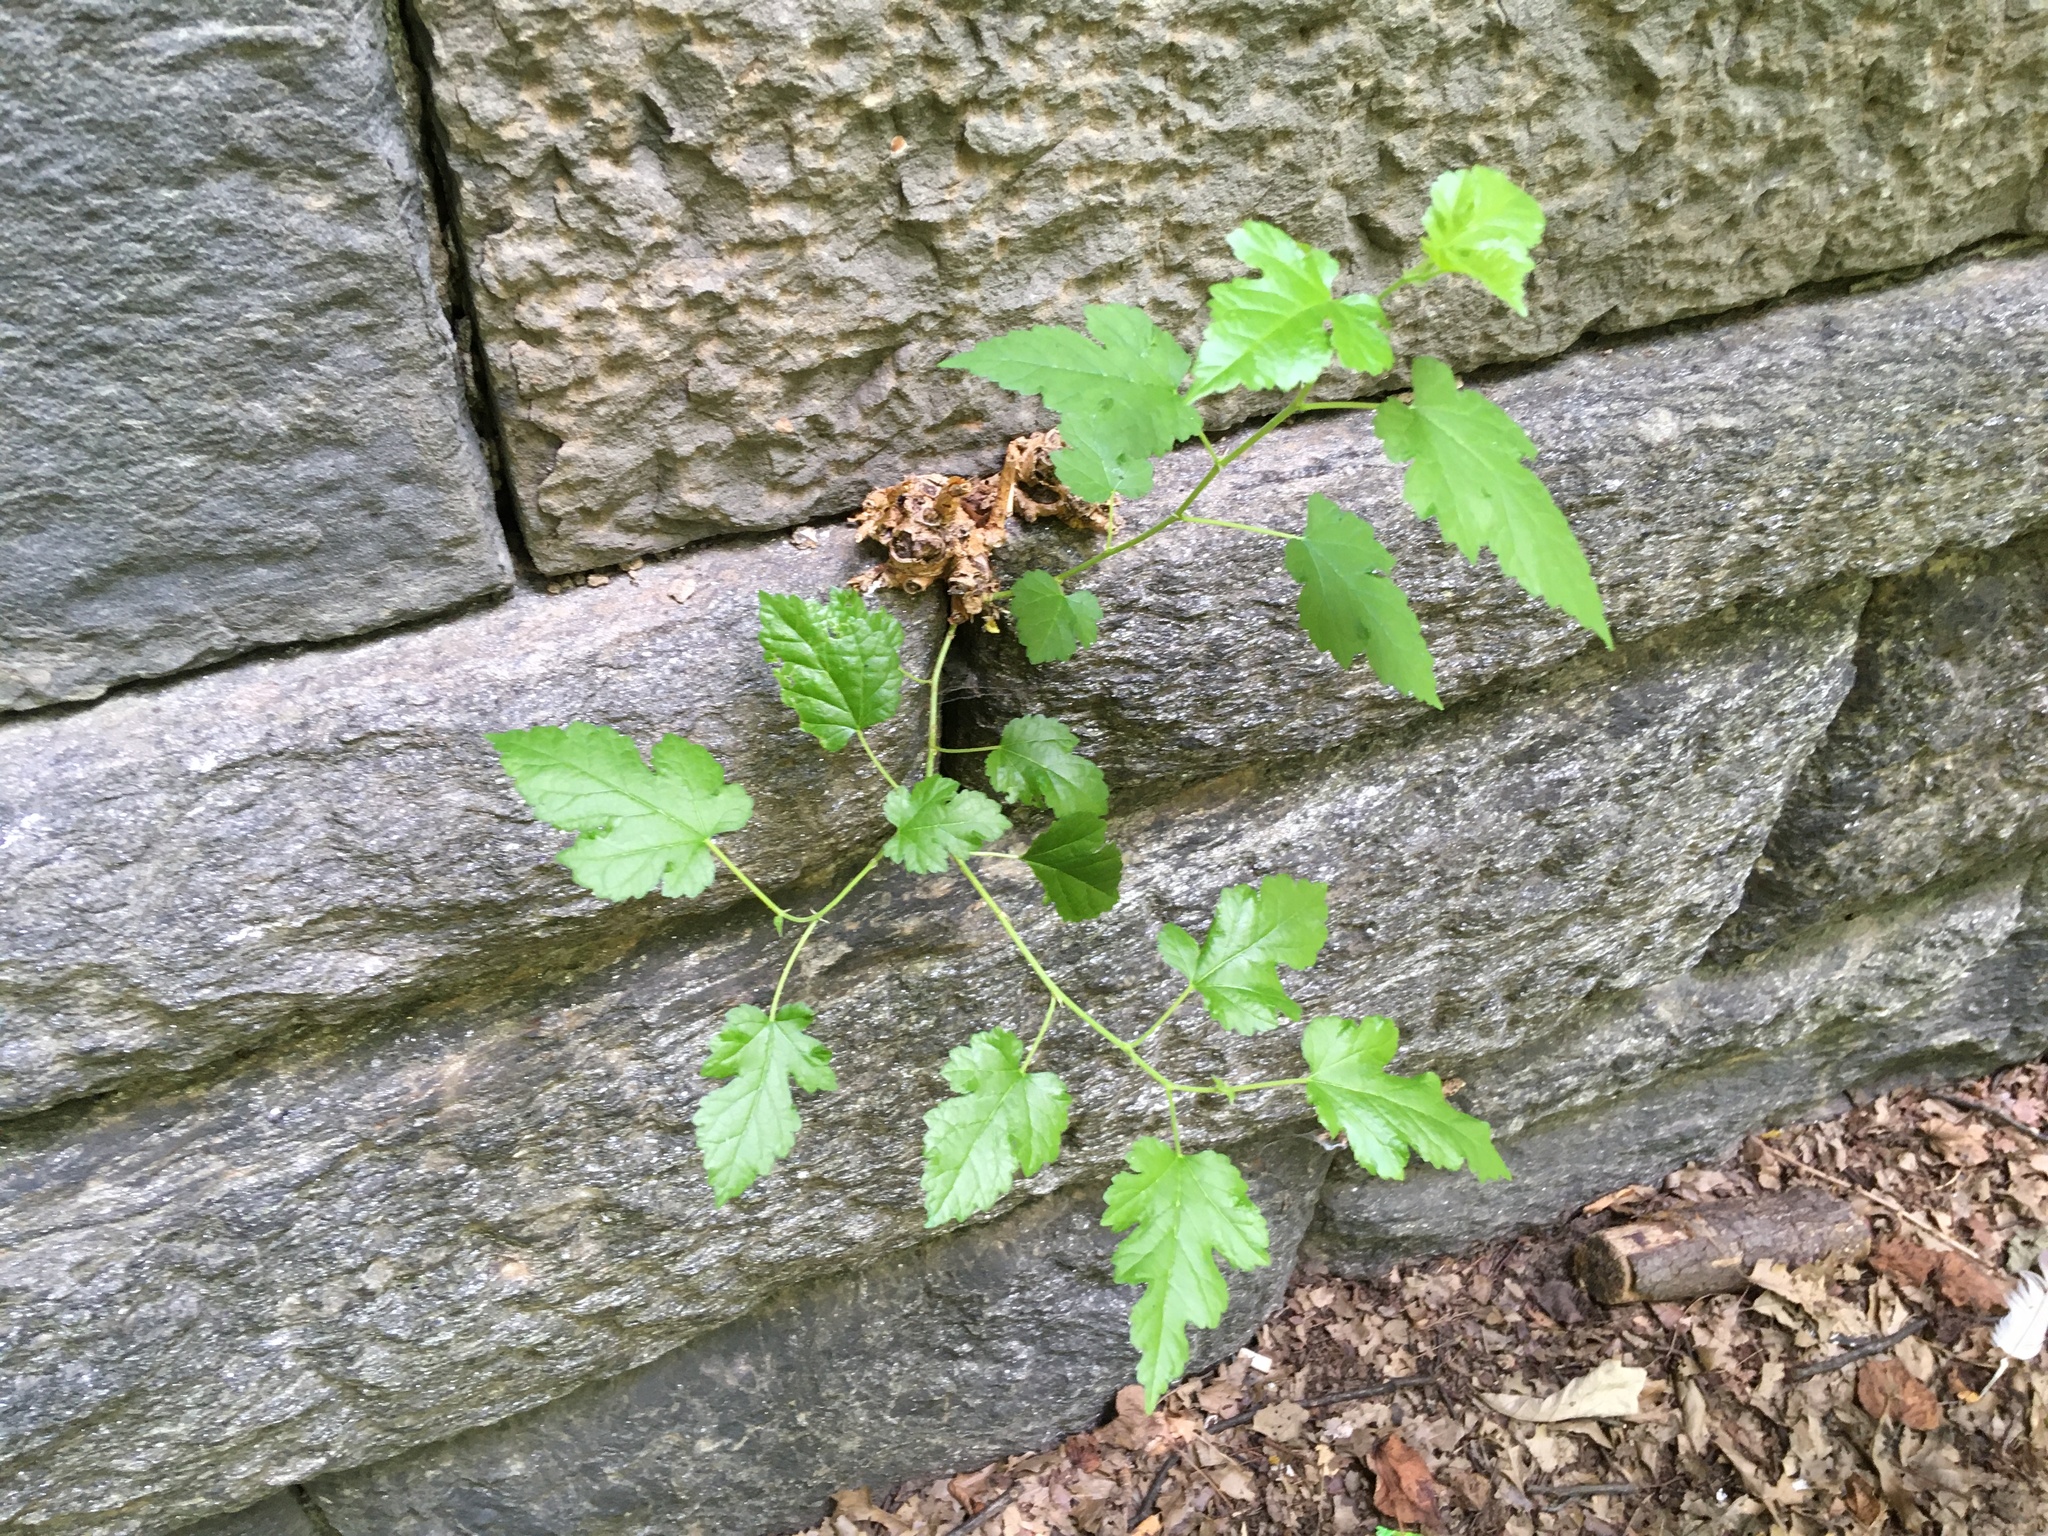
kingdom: Plantae
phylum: Tracheophyta
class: Magnoliopsida
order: Rosales
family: Moraceae
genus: Morus
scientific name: Morus alba
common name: White mulberry
